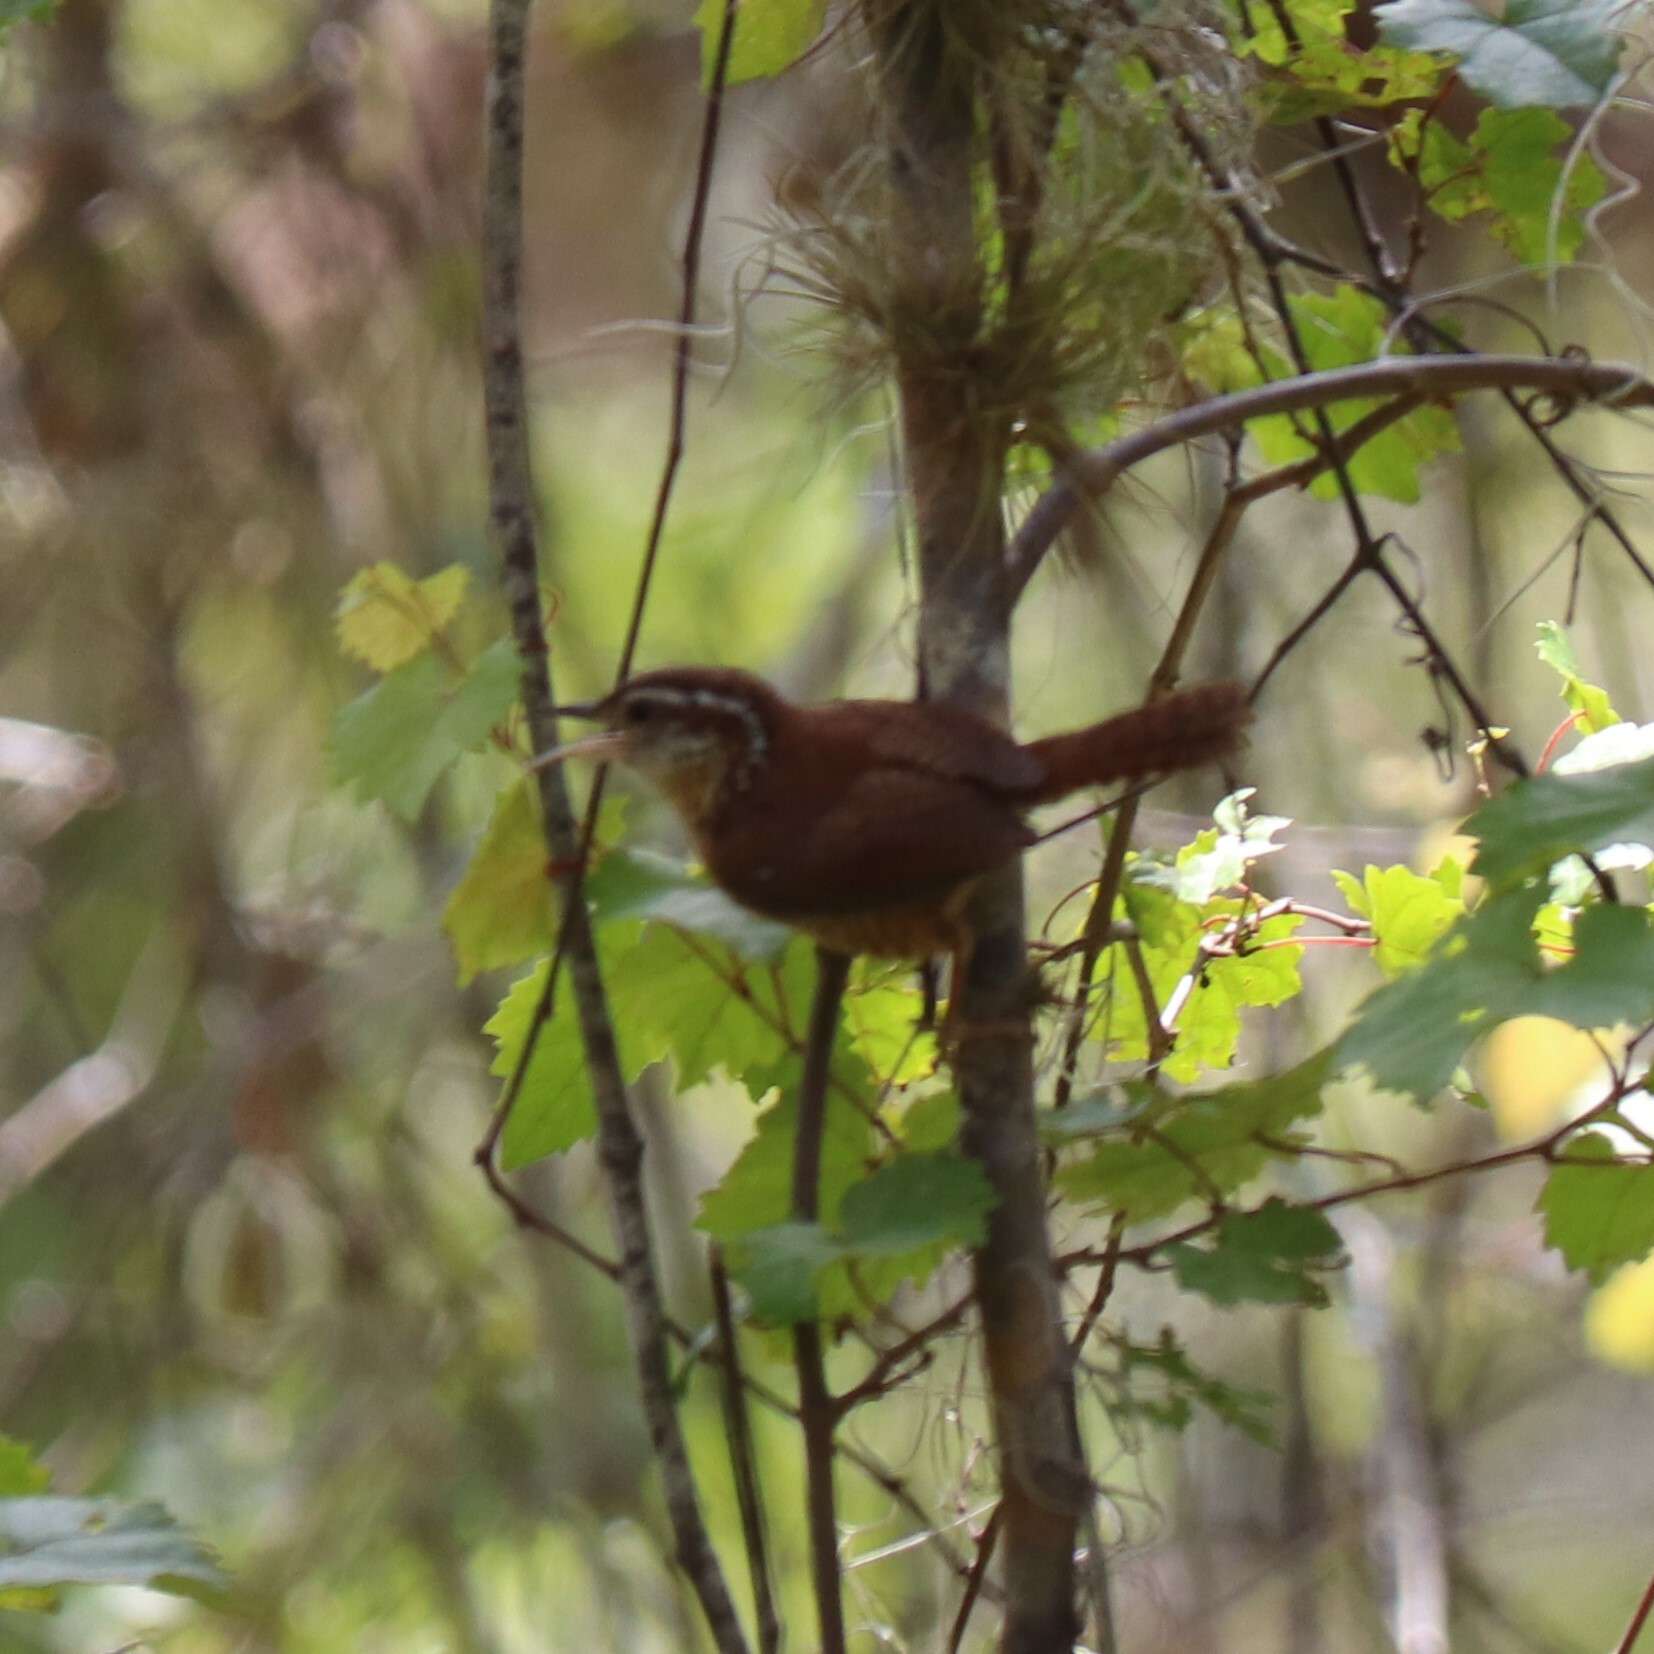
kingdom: Animalia
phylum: Chordata
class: Aves
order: Passeriformes
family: Troglodytidae
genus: Thryothorus
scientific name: Thryothorus ludovicianus
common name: Carolina wren
